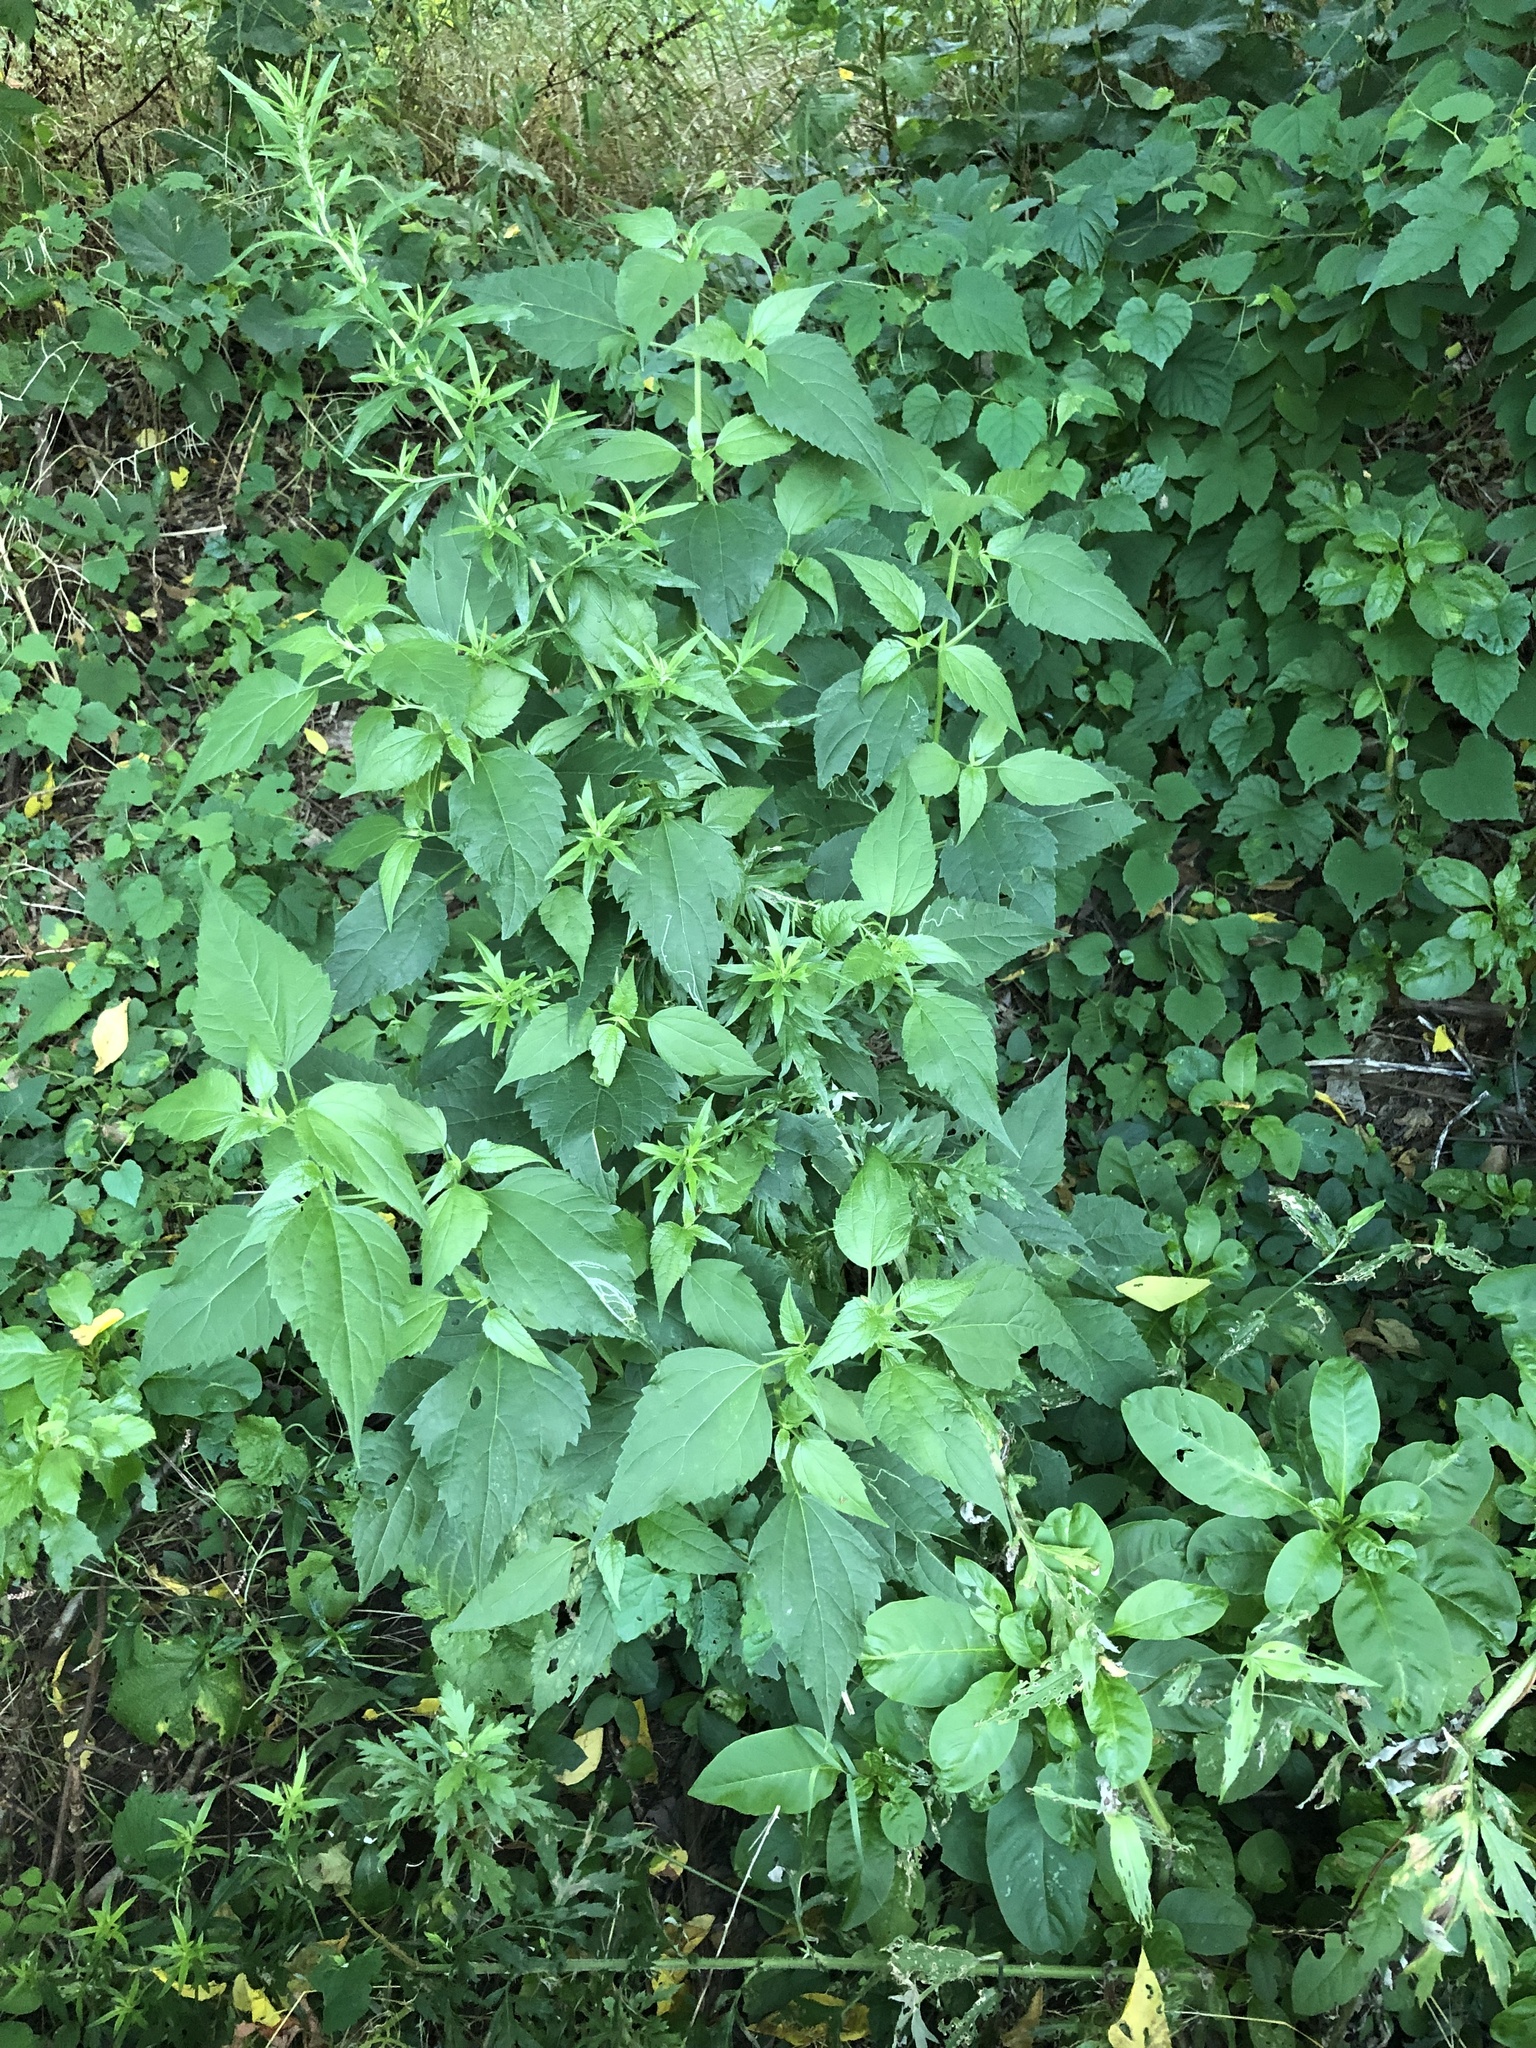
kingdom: Plantae
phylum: Tracheophyta
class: Magnoliopsida
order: Asterales
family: Asteraceae
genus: Ageratina
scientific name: Ageratina altissima
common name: White snakeroot
